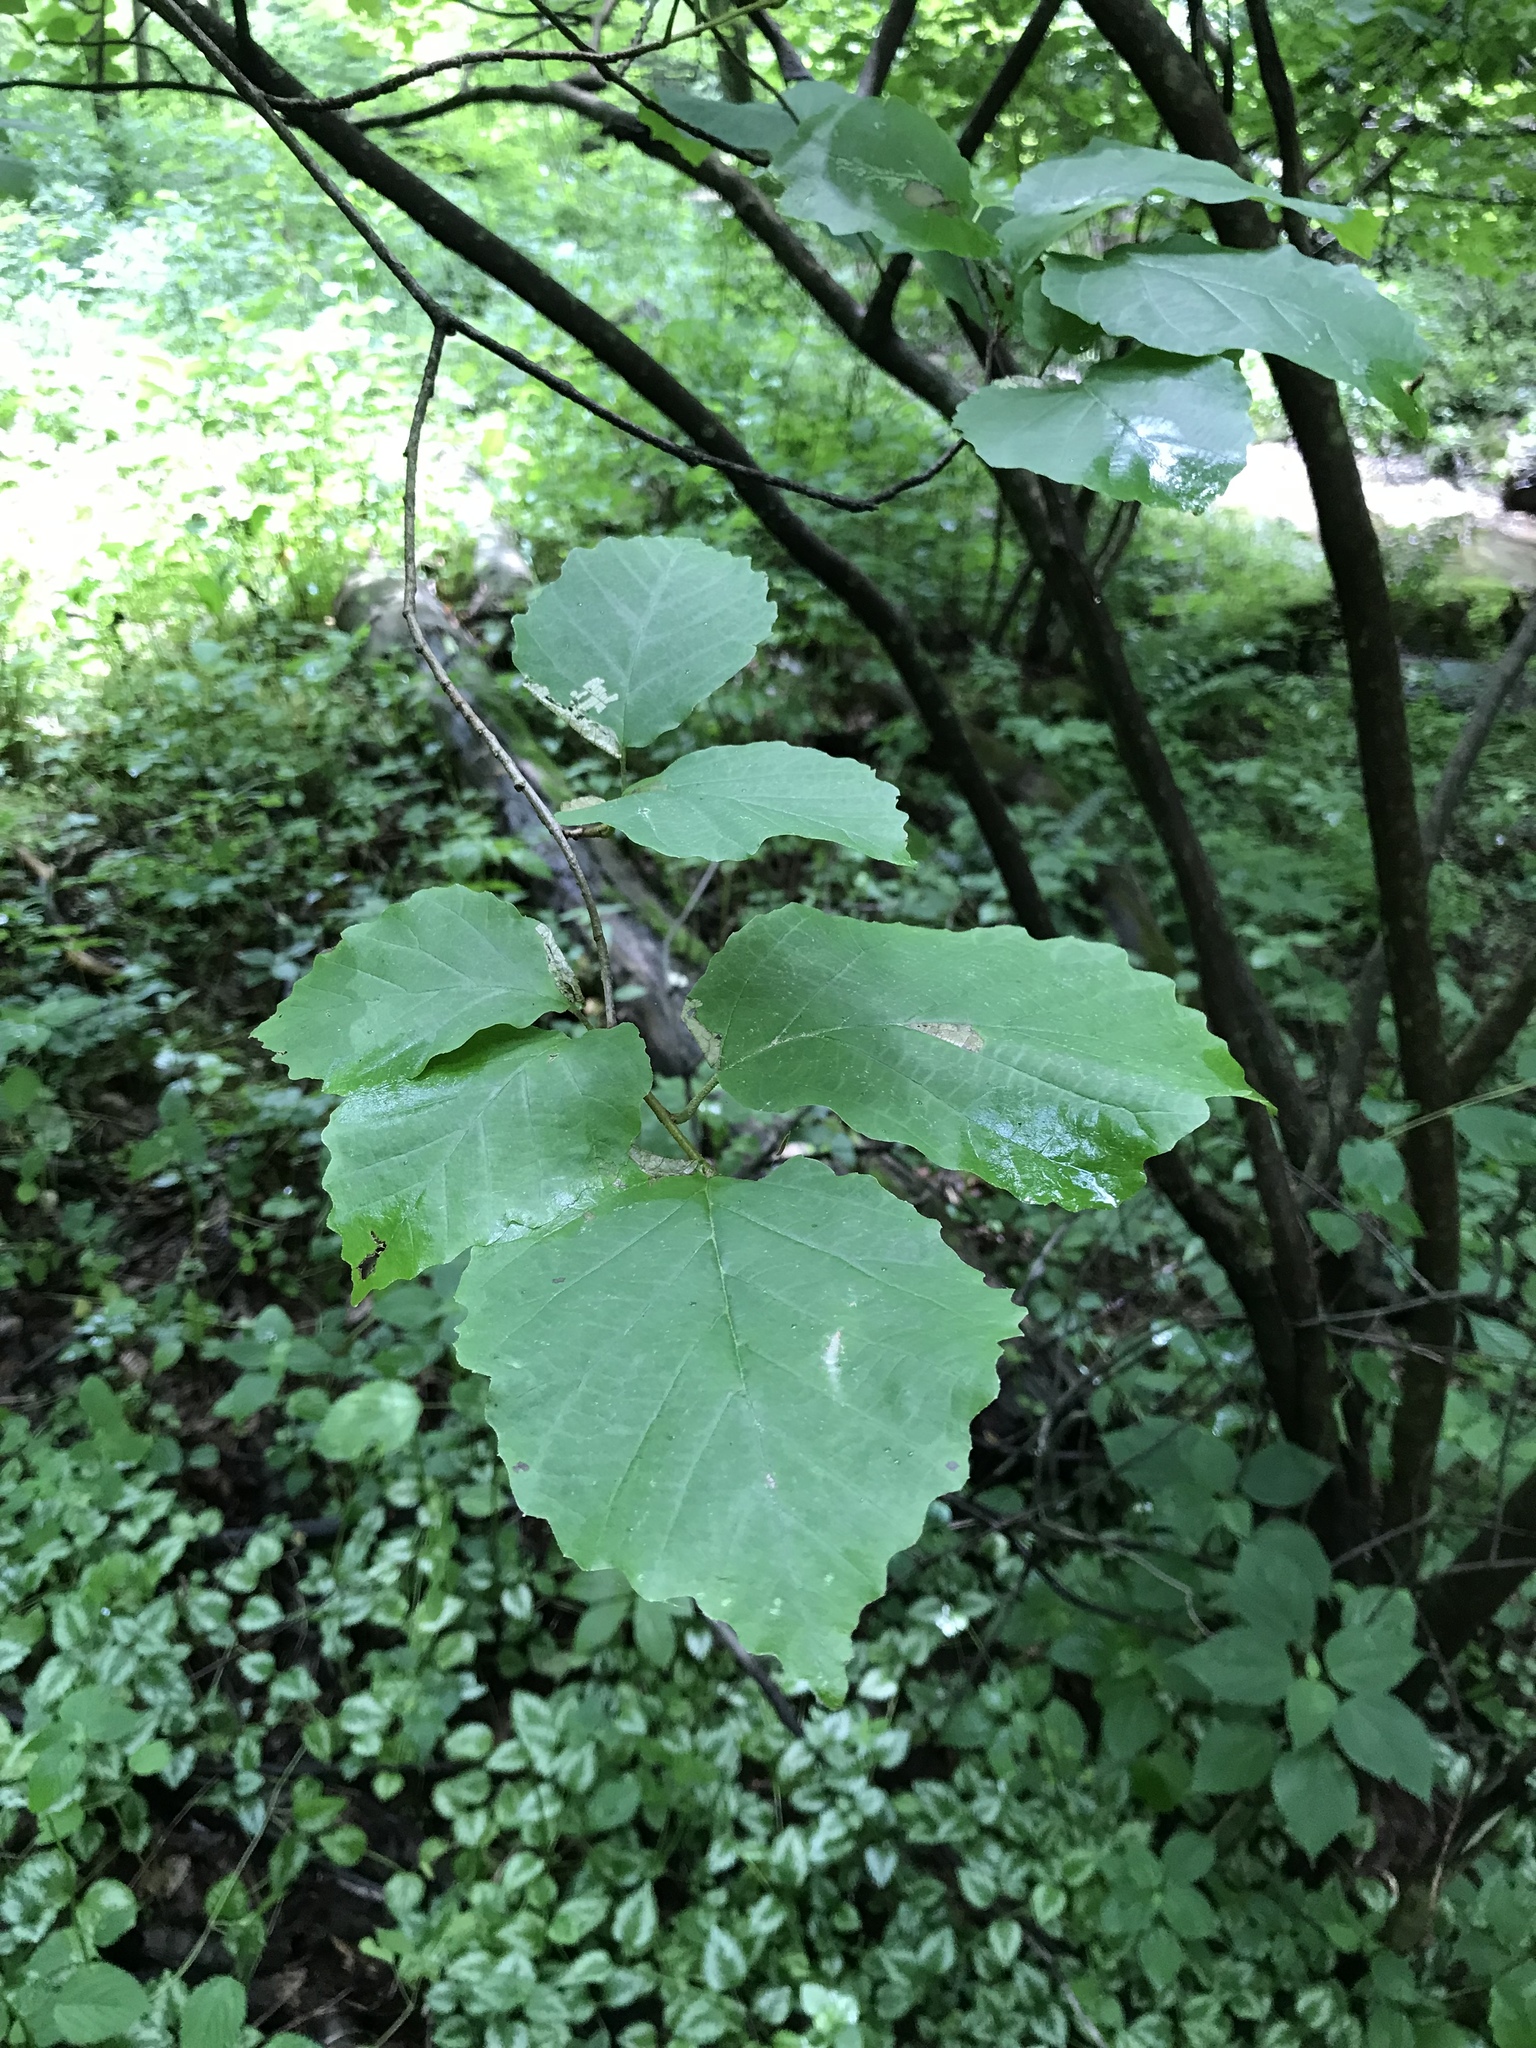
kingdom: Plantae
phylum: Tracheophyta
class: Magnoliopsida
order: Saxifragales
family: Hamamelidaceae
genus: Hamamelis
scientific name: Hamamelis virginiana
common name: Witch-hazel
